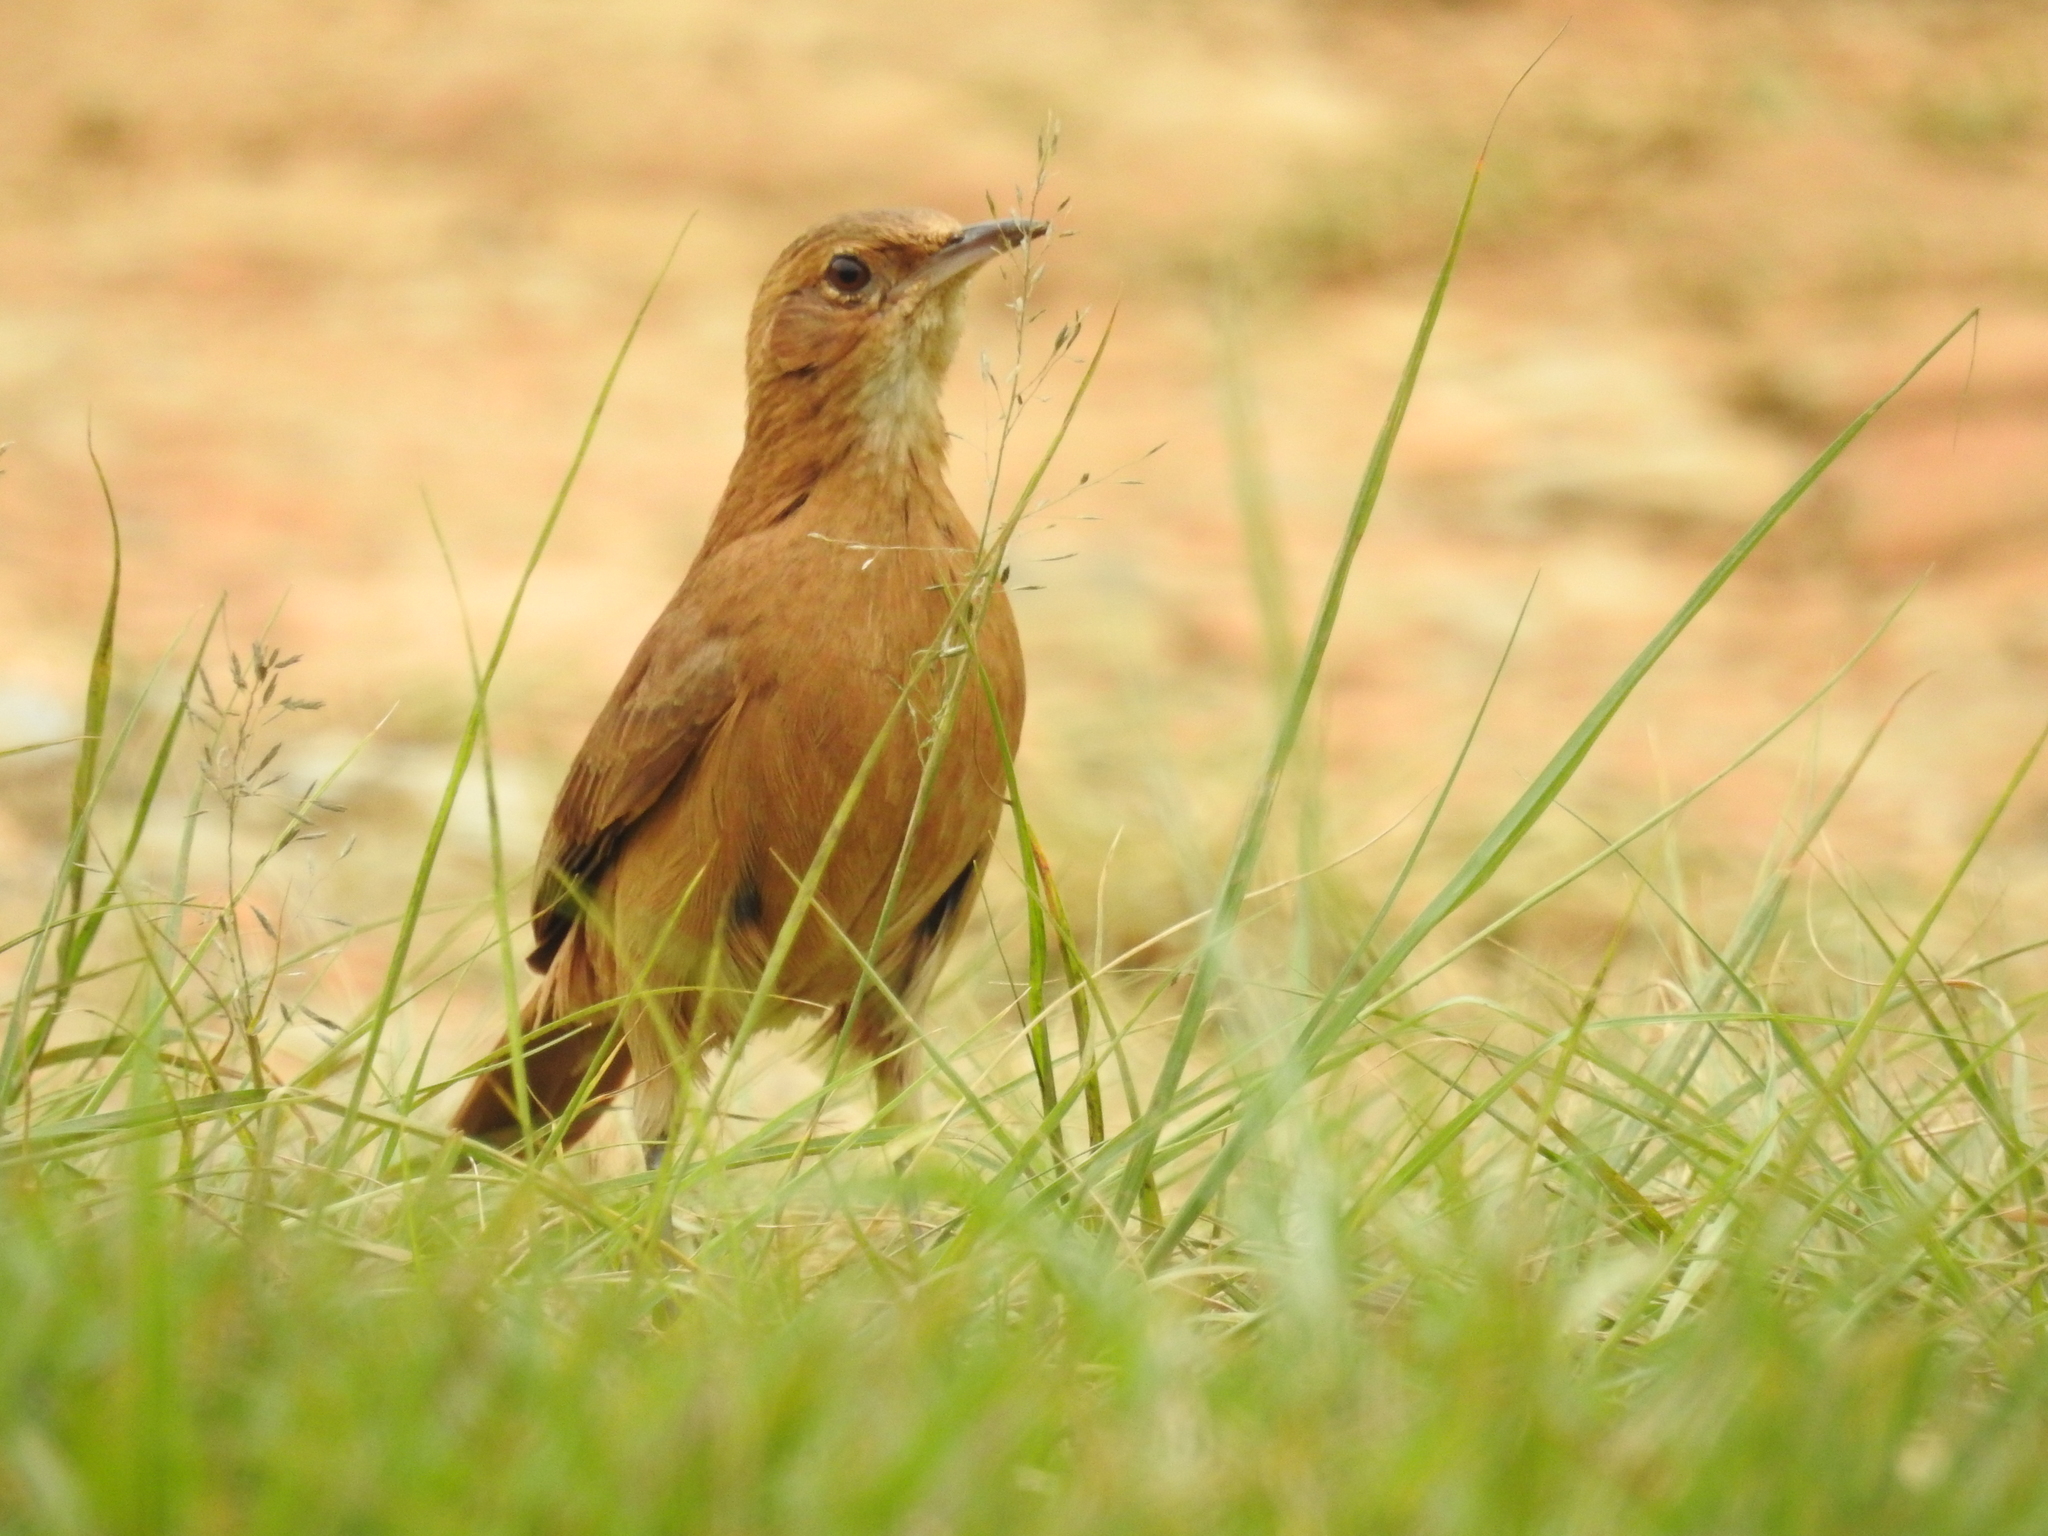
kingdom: Animalia
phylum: Chordata
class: Aves
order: Passeriformes
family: Furnariidae
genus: Furnarius
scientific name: Furnarius rufus
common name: Rufous hornero
